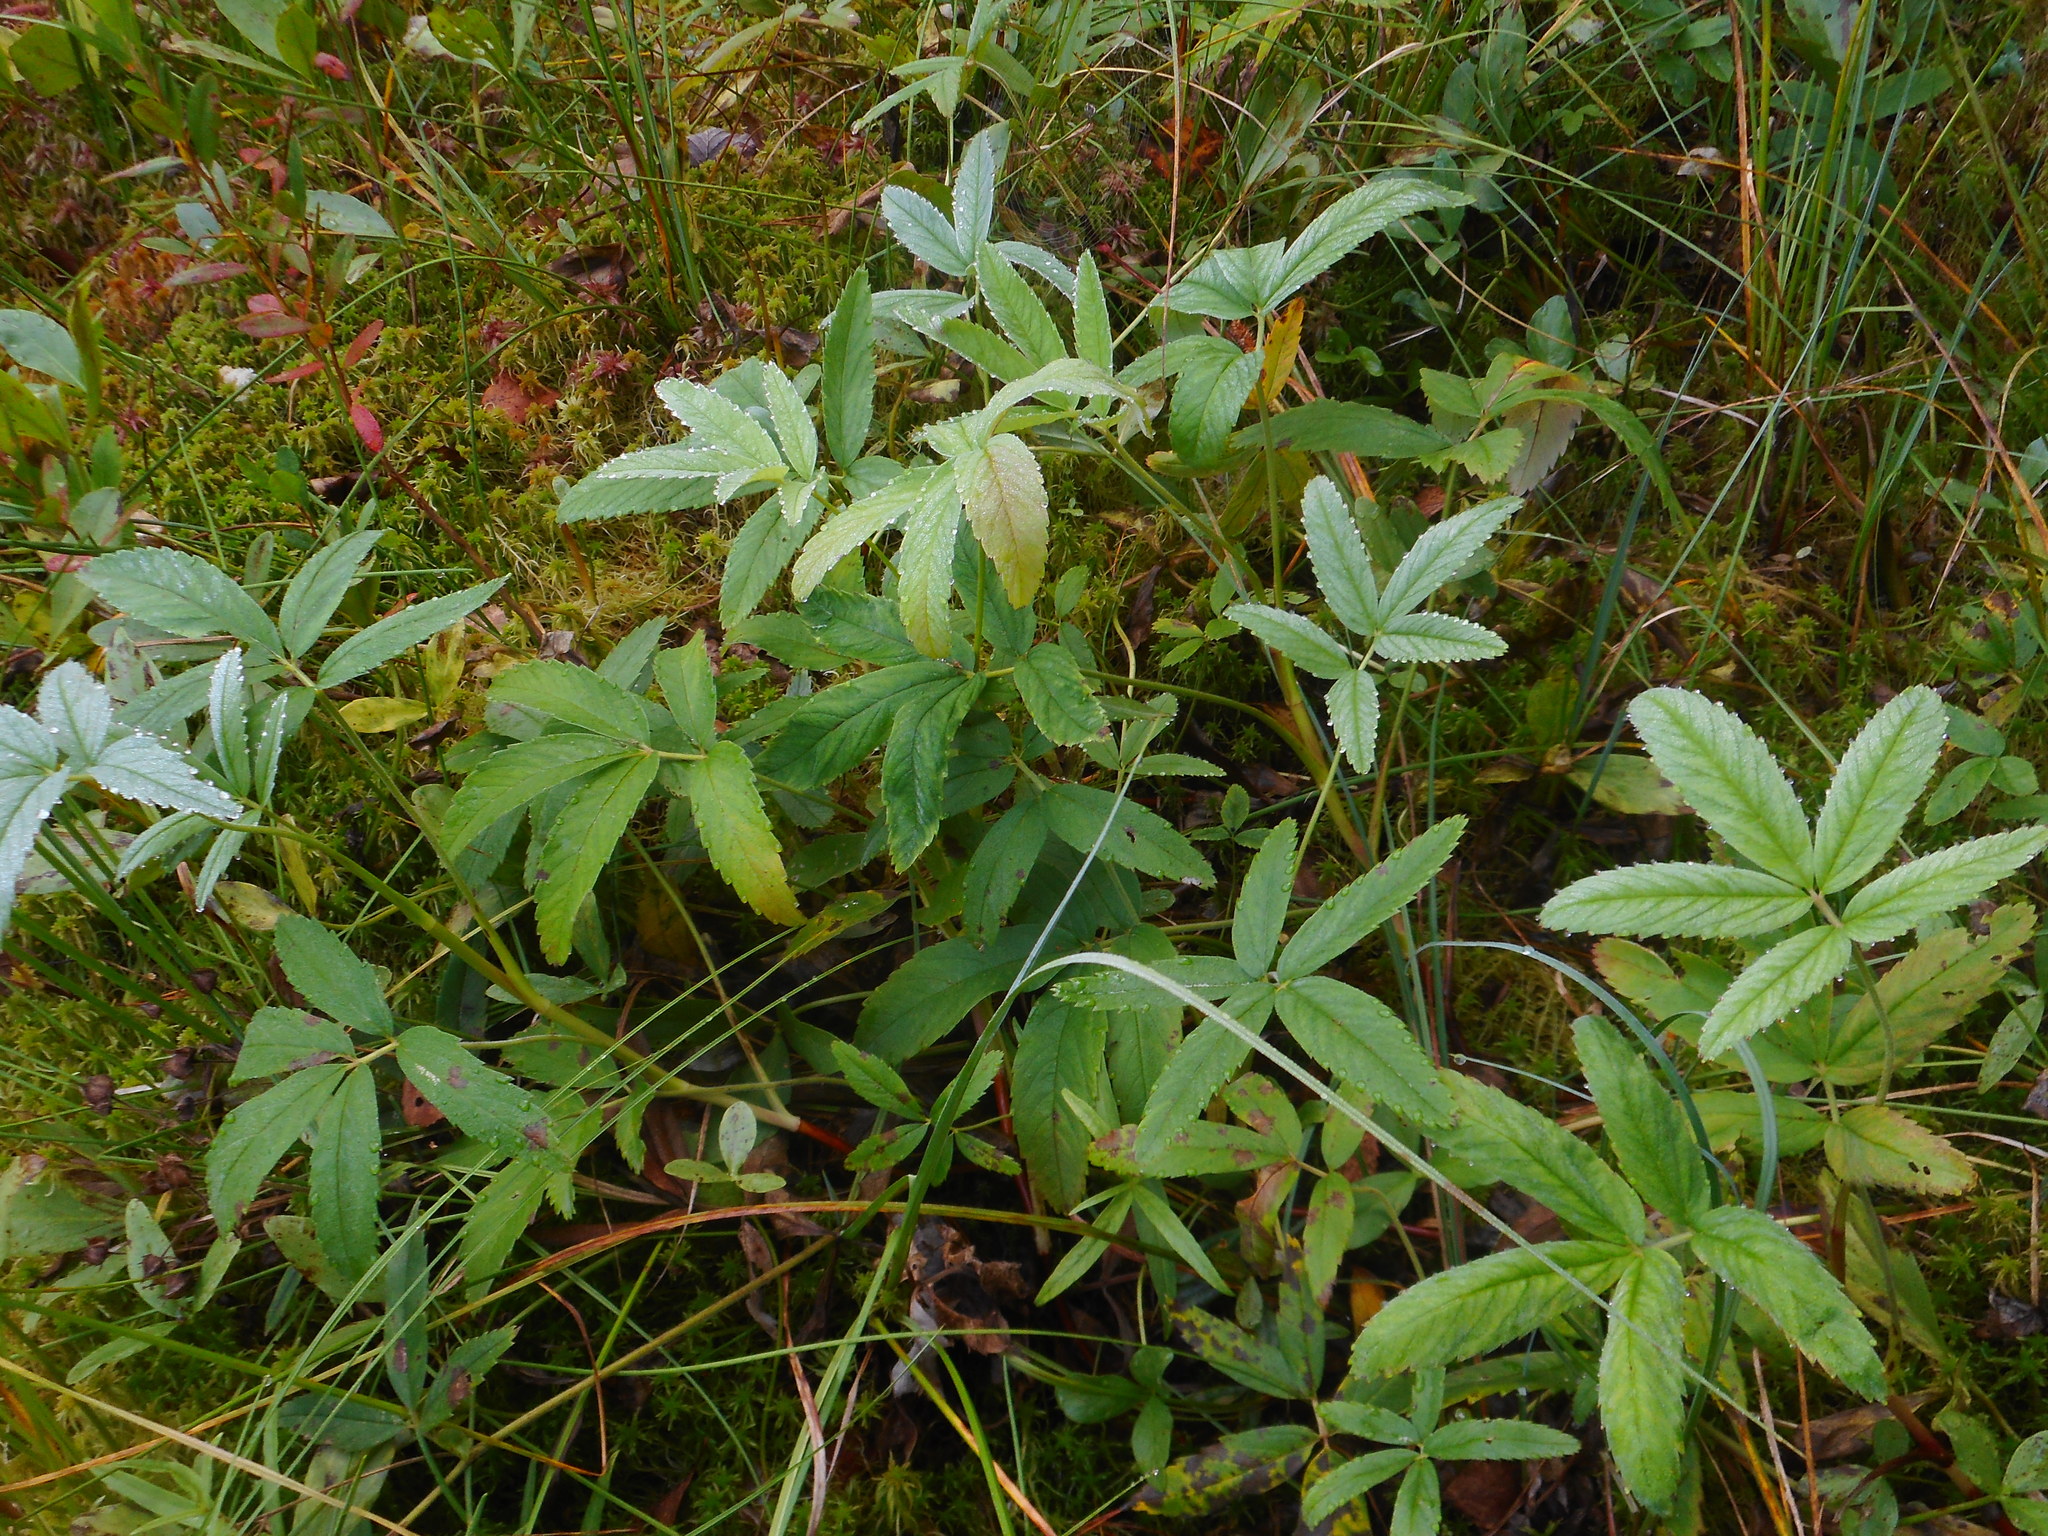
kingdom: Plantae
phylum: Tracheophyta
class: Magnoliopsida
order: Rosales
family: Rosaceae
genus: Comarum
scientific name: Comarum palustre
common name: Marsh cinquefoil
